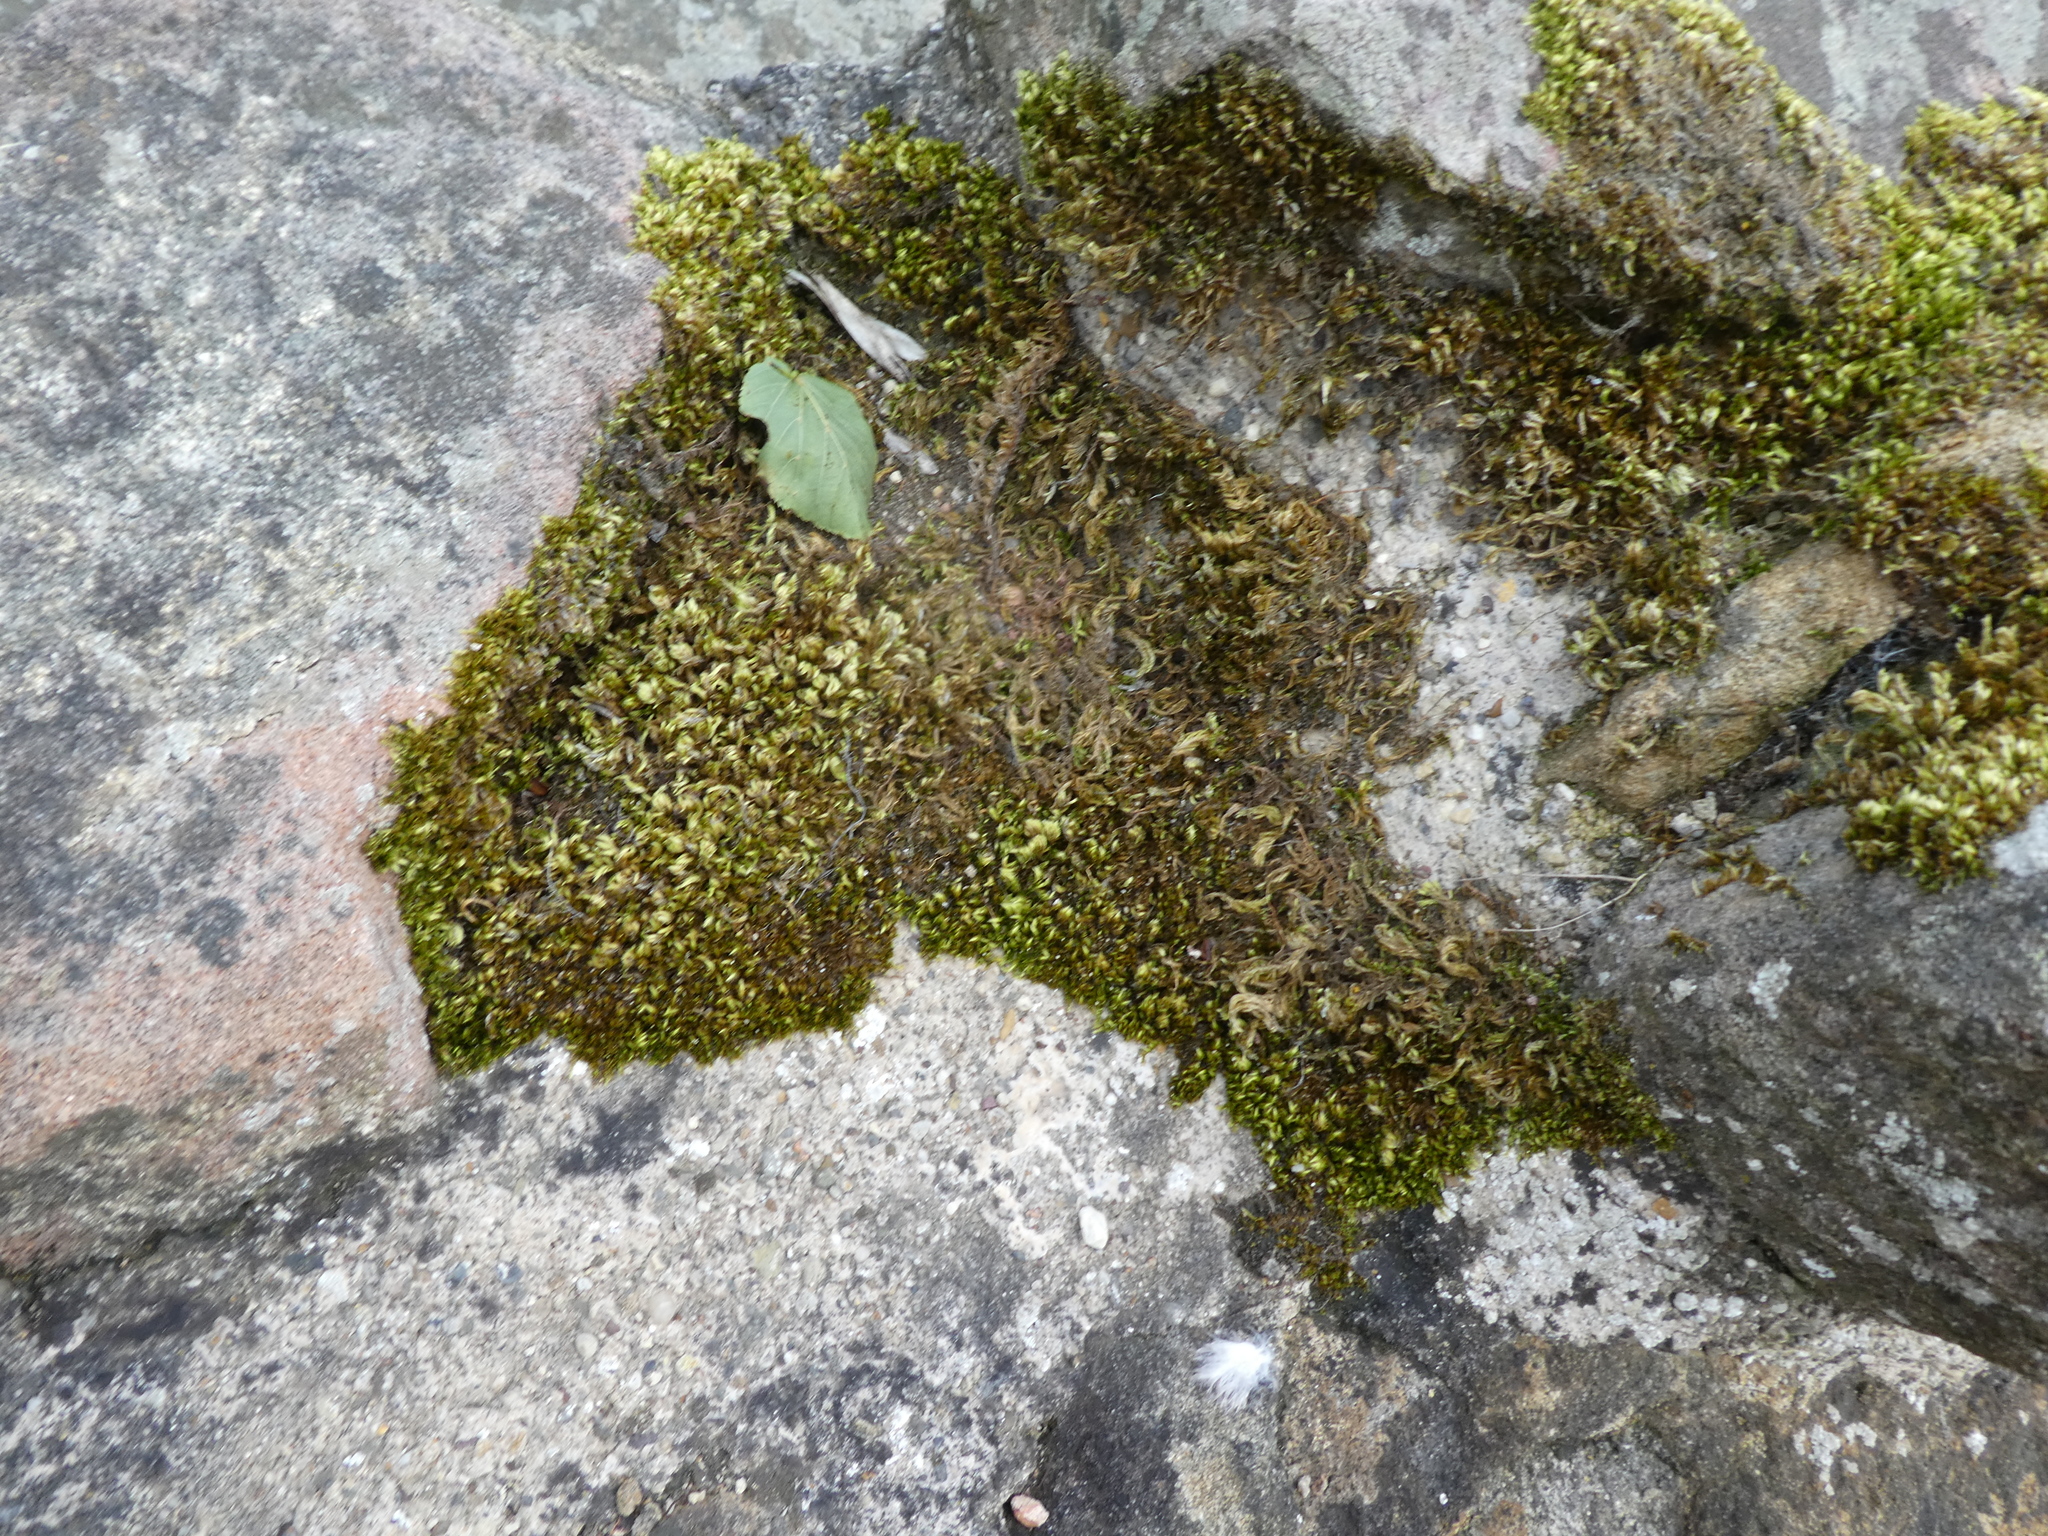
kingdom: Plantae
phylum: Bryophyta
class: Bryopsida
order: Hypnales
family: Brachytheciaceae
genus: Homalothecium
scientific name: Homalothecium sericeum
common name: Silky wall feather-moss
